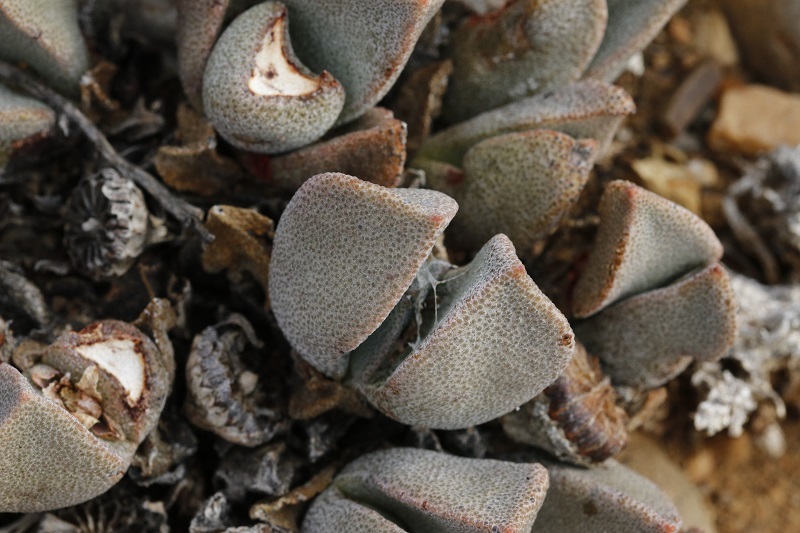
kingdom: Plantae
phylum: Tracheophyta
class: Magnoliopsida
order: Caryophyllales
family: Aizoaceae
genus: Pleiospilos
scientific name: Pleiospilos compactus
